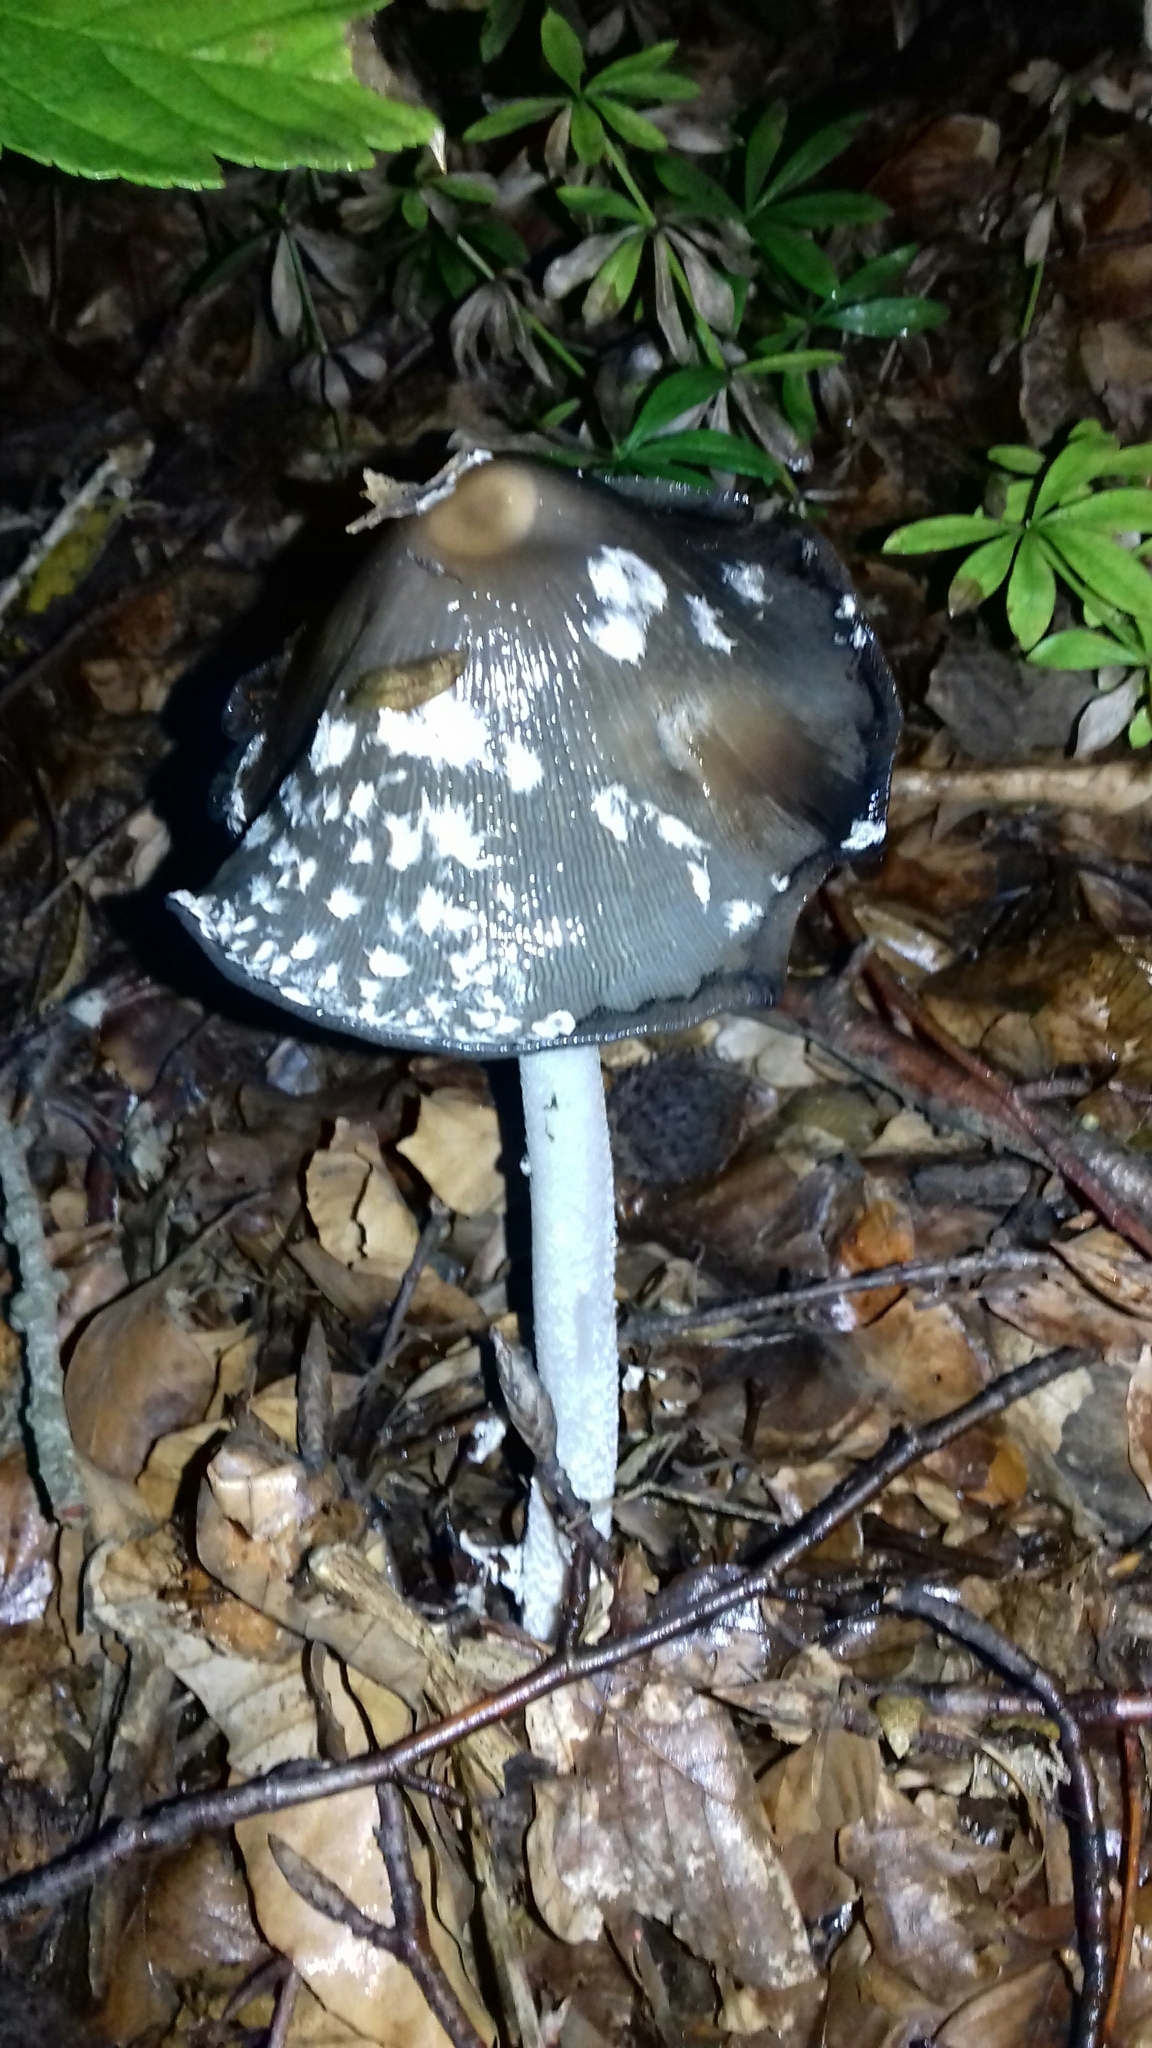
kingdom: Fungi
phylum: Basidiomycota
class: Agaricomycetes
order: Agaricales
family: Psathyrellaceae
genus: Coprinopsis
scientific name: Coprinopsis picacea
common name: Magpie inkcap
